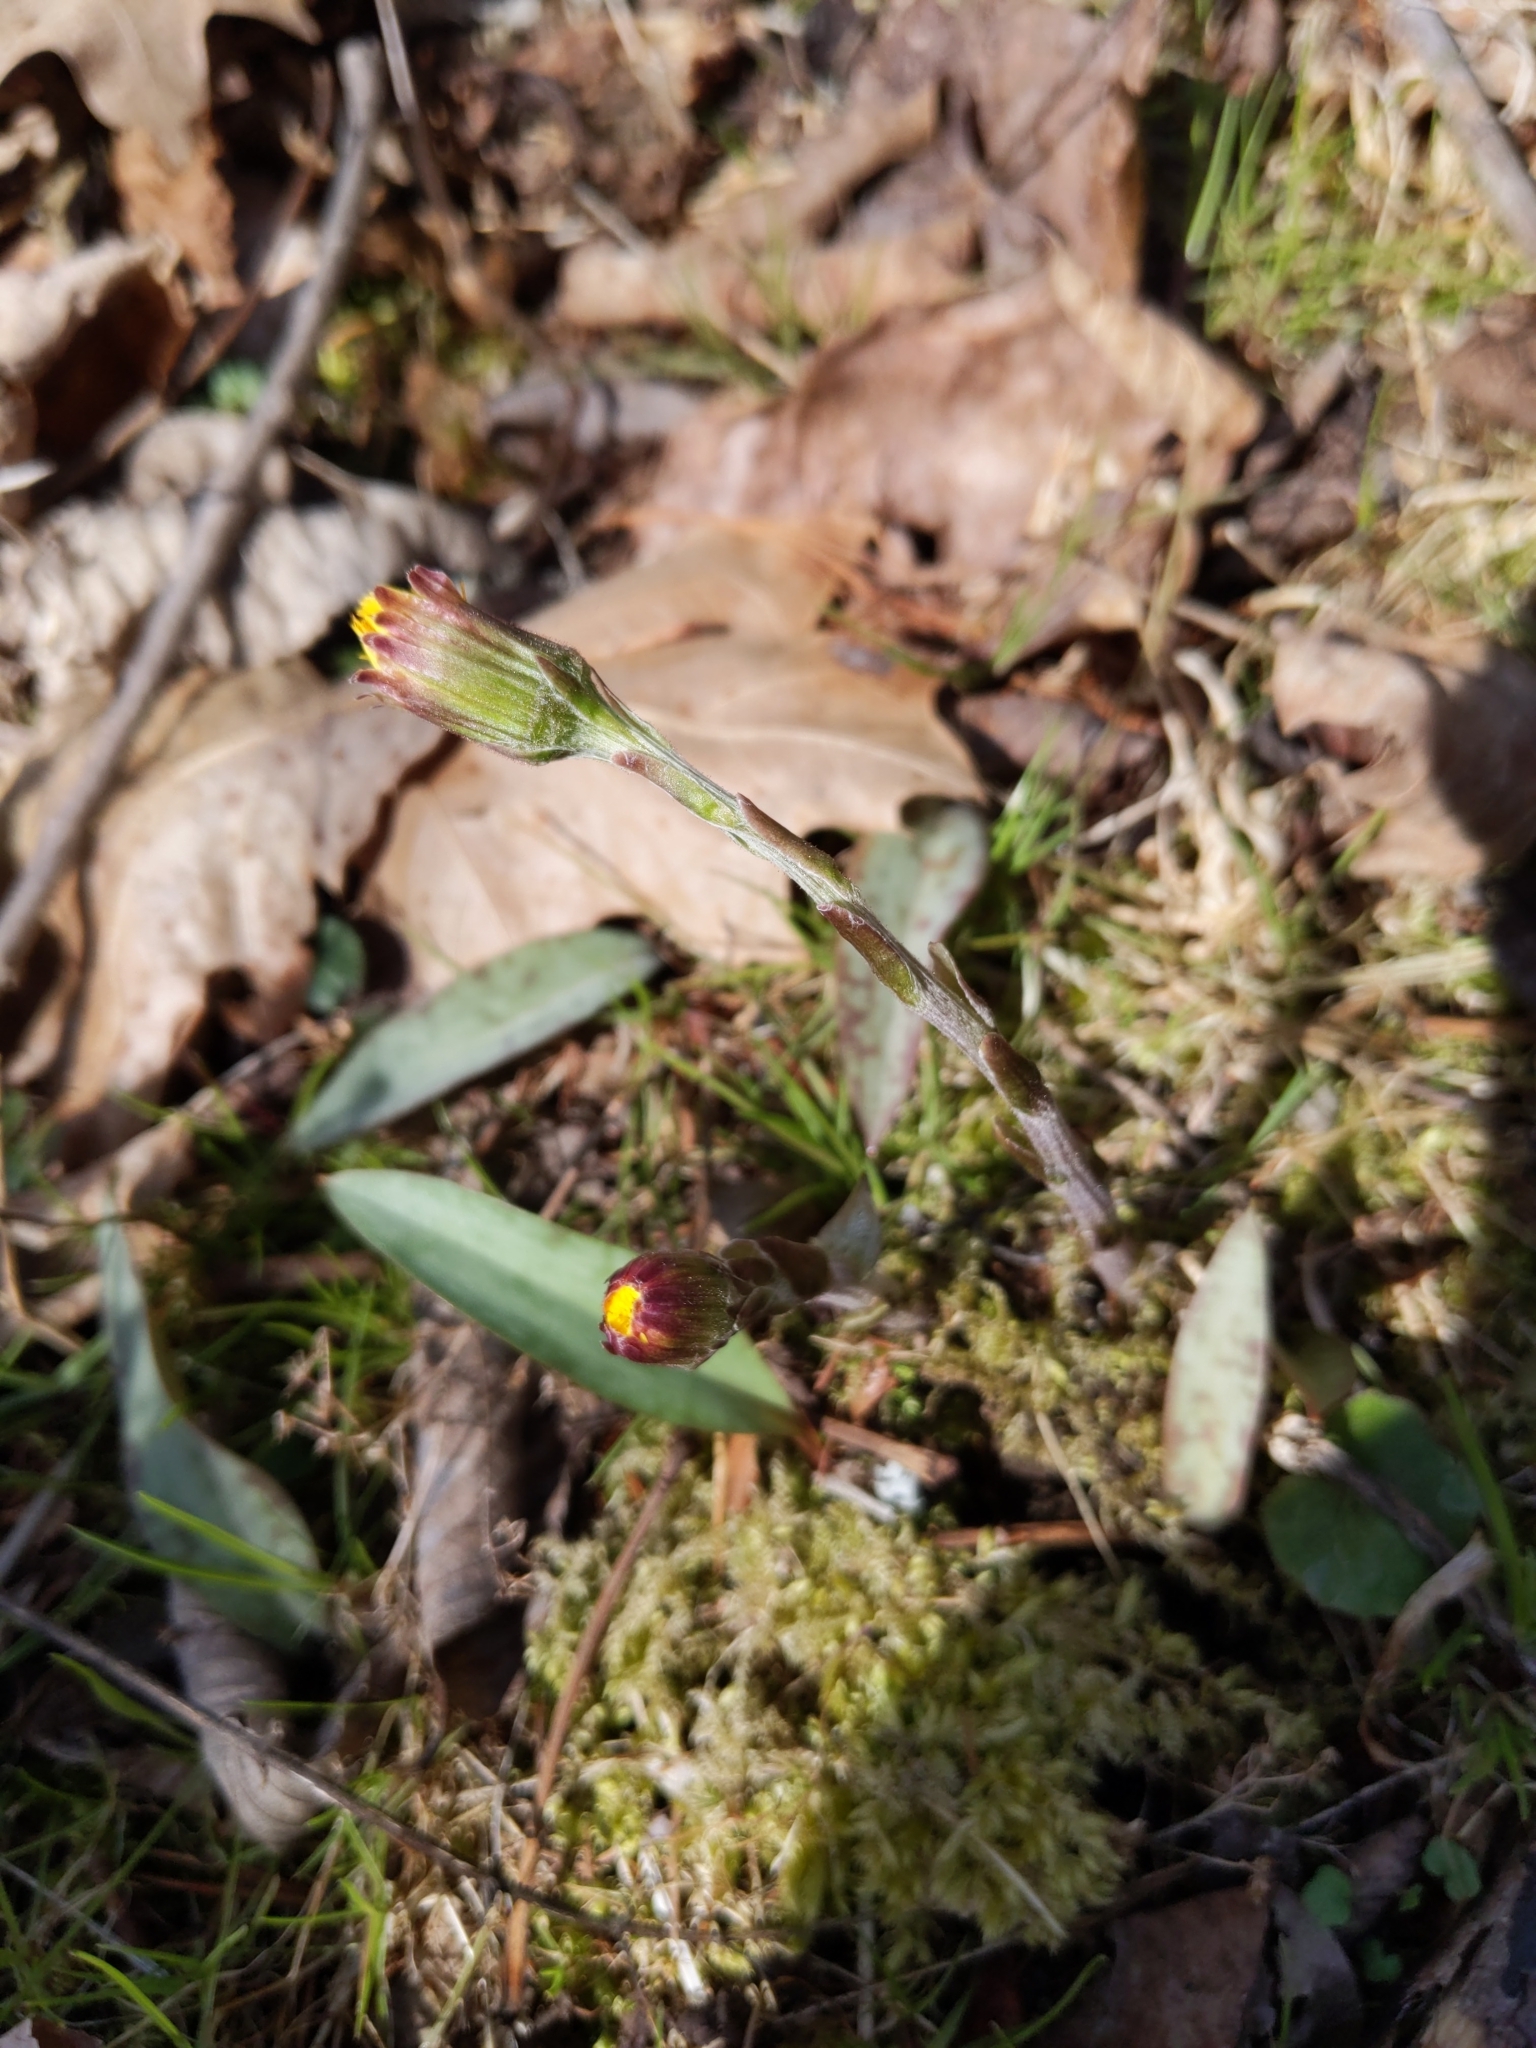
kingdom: Plantae
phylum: Tracheophyta
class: Magnoliopsida
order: Asterales
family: Asteraceae
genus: Tussilago
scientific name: Tussilago farfara
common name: Coltsfoot
